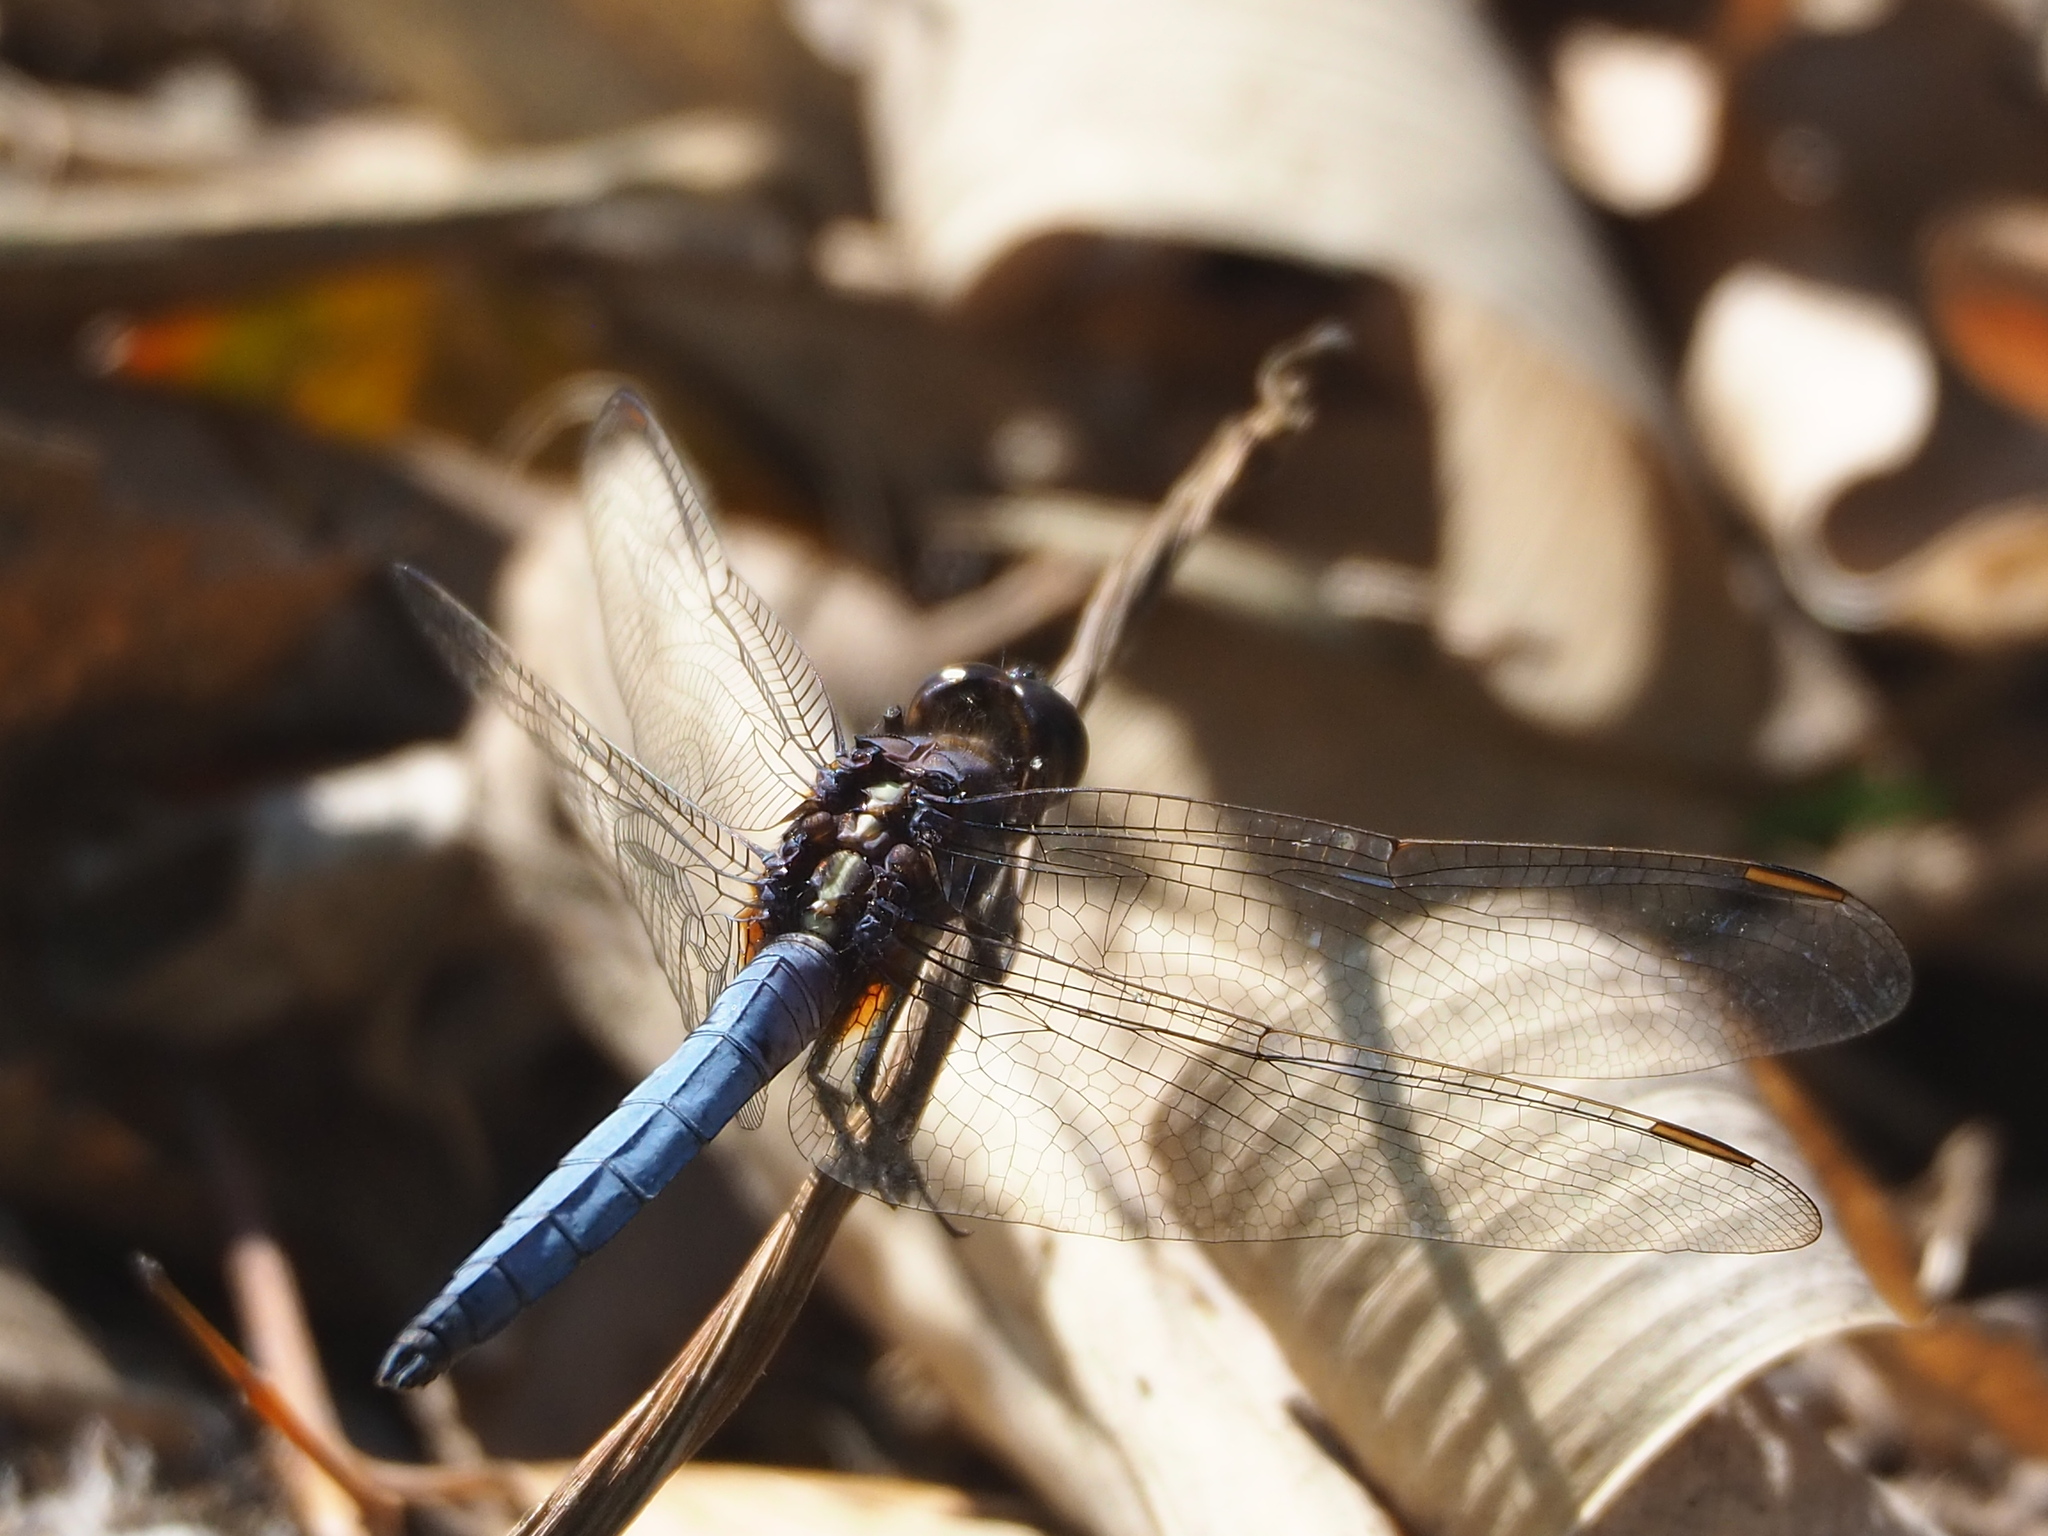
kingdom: Animalia
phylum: Arthropoda
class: Insecta
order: Odonata
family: Libellulidae
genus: Orthetrum
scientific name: Orthetrum glaucum
